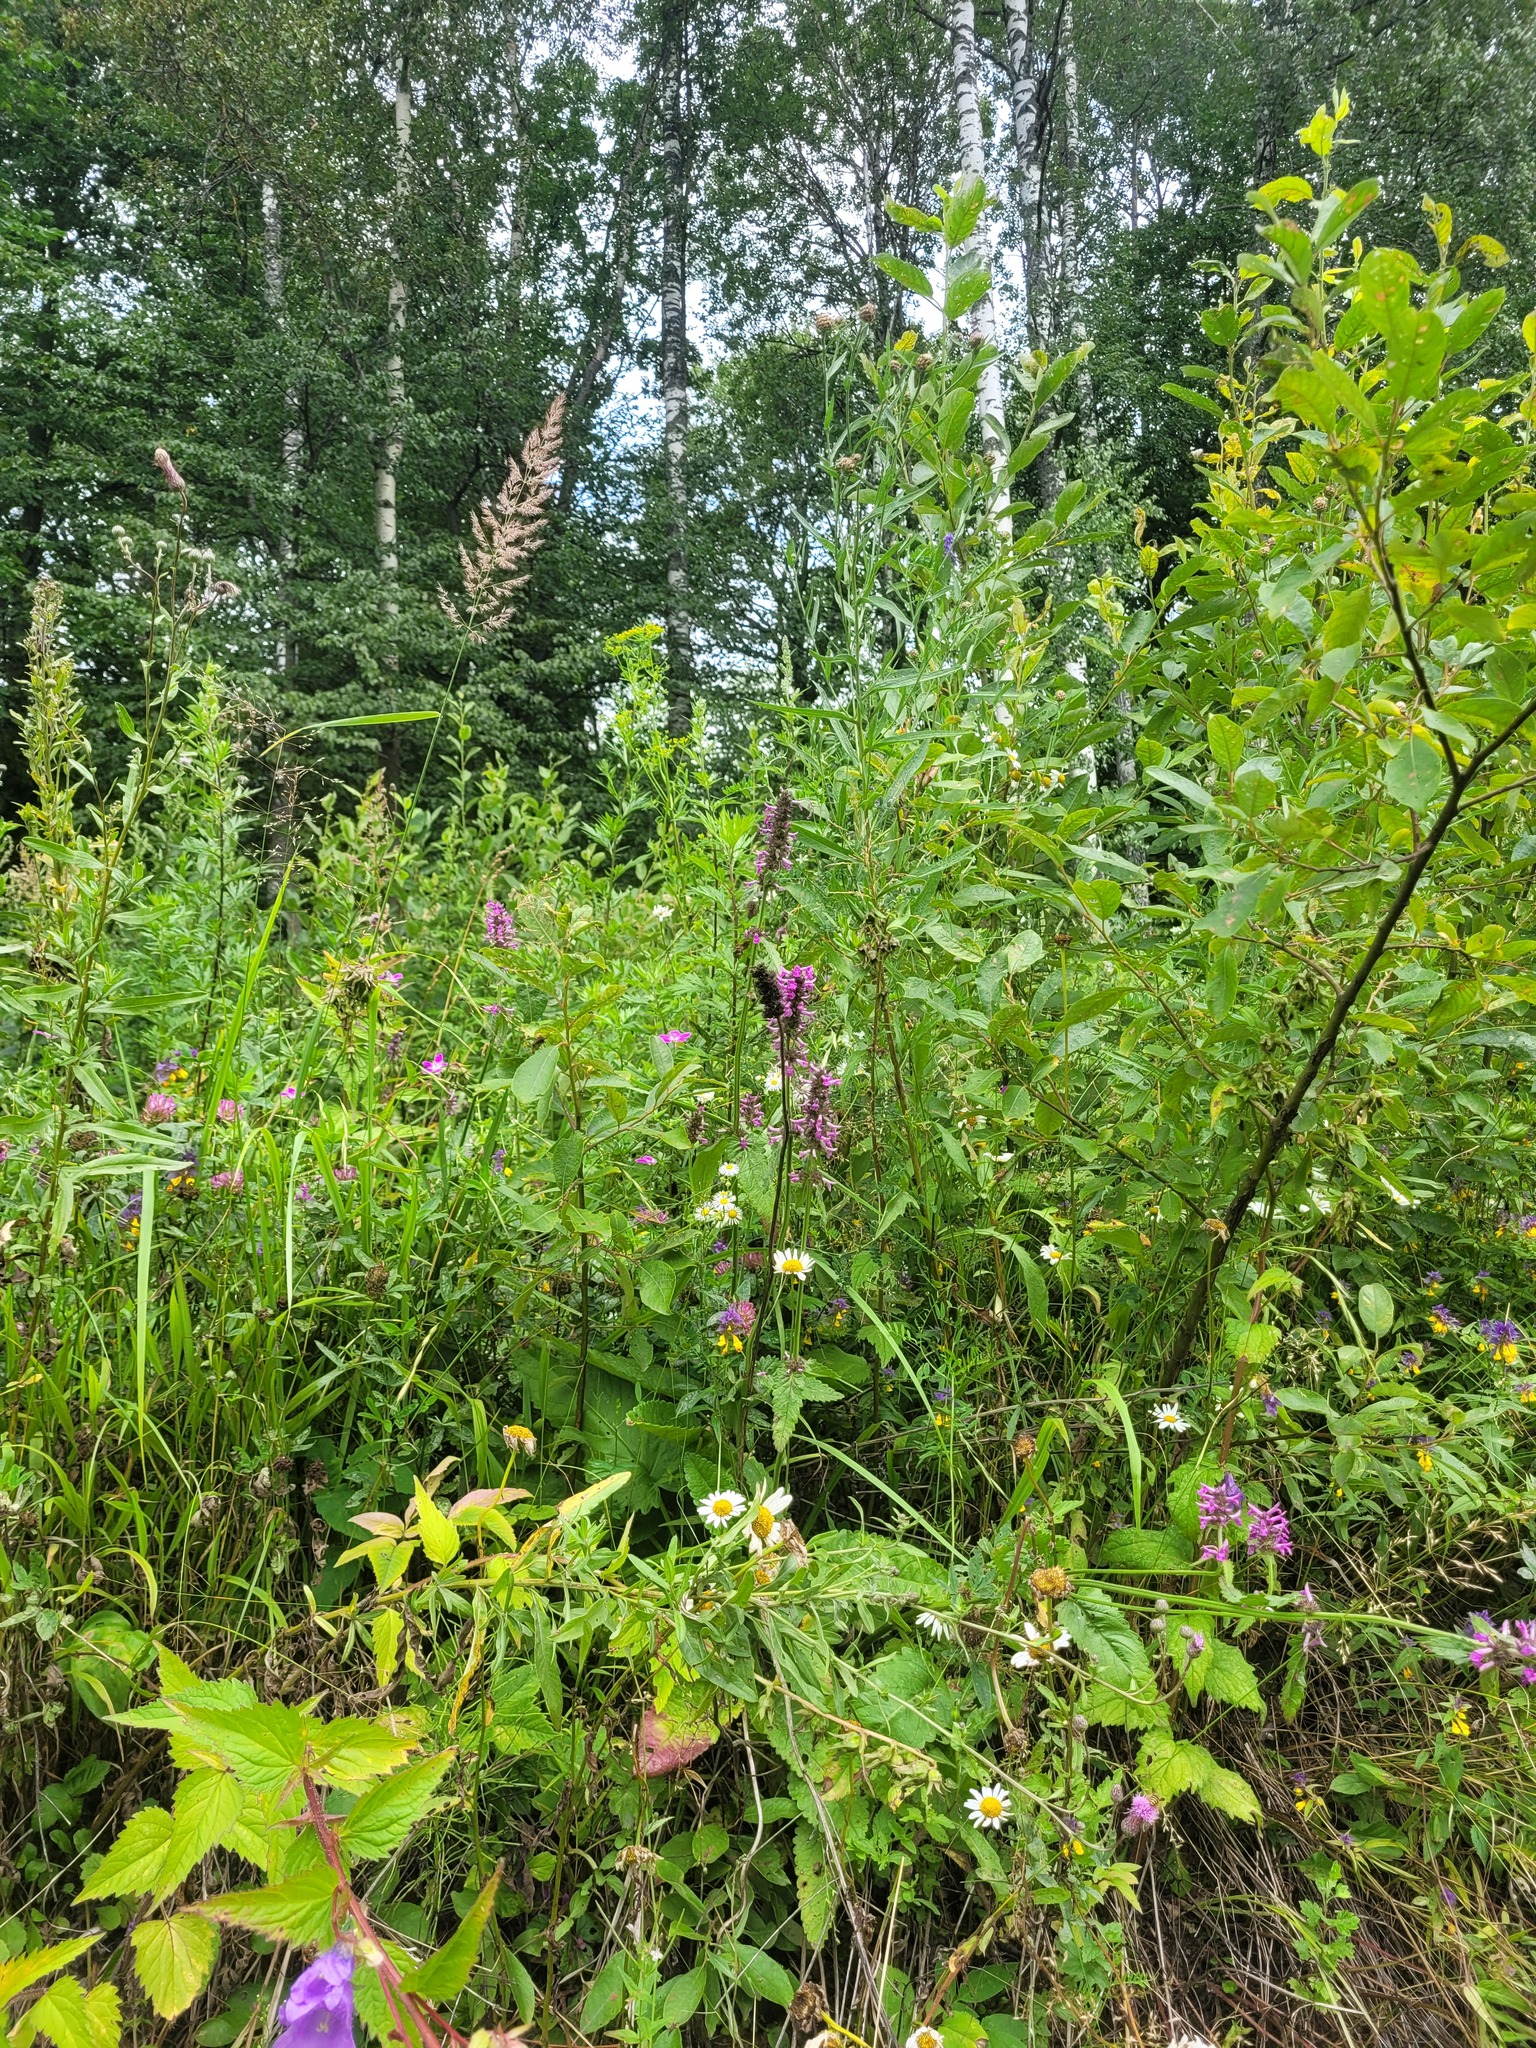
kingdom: Plantae
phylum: Tracheophyta
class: Magnoliopsida
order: Lamiales
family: Lamiaceae
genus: Betonica
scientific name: Betonica officinalis
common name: Bishop's-wort
